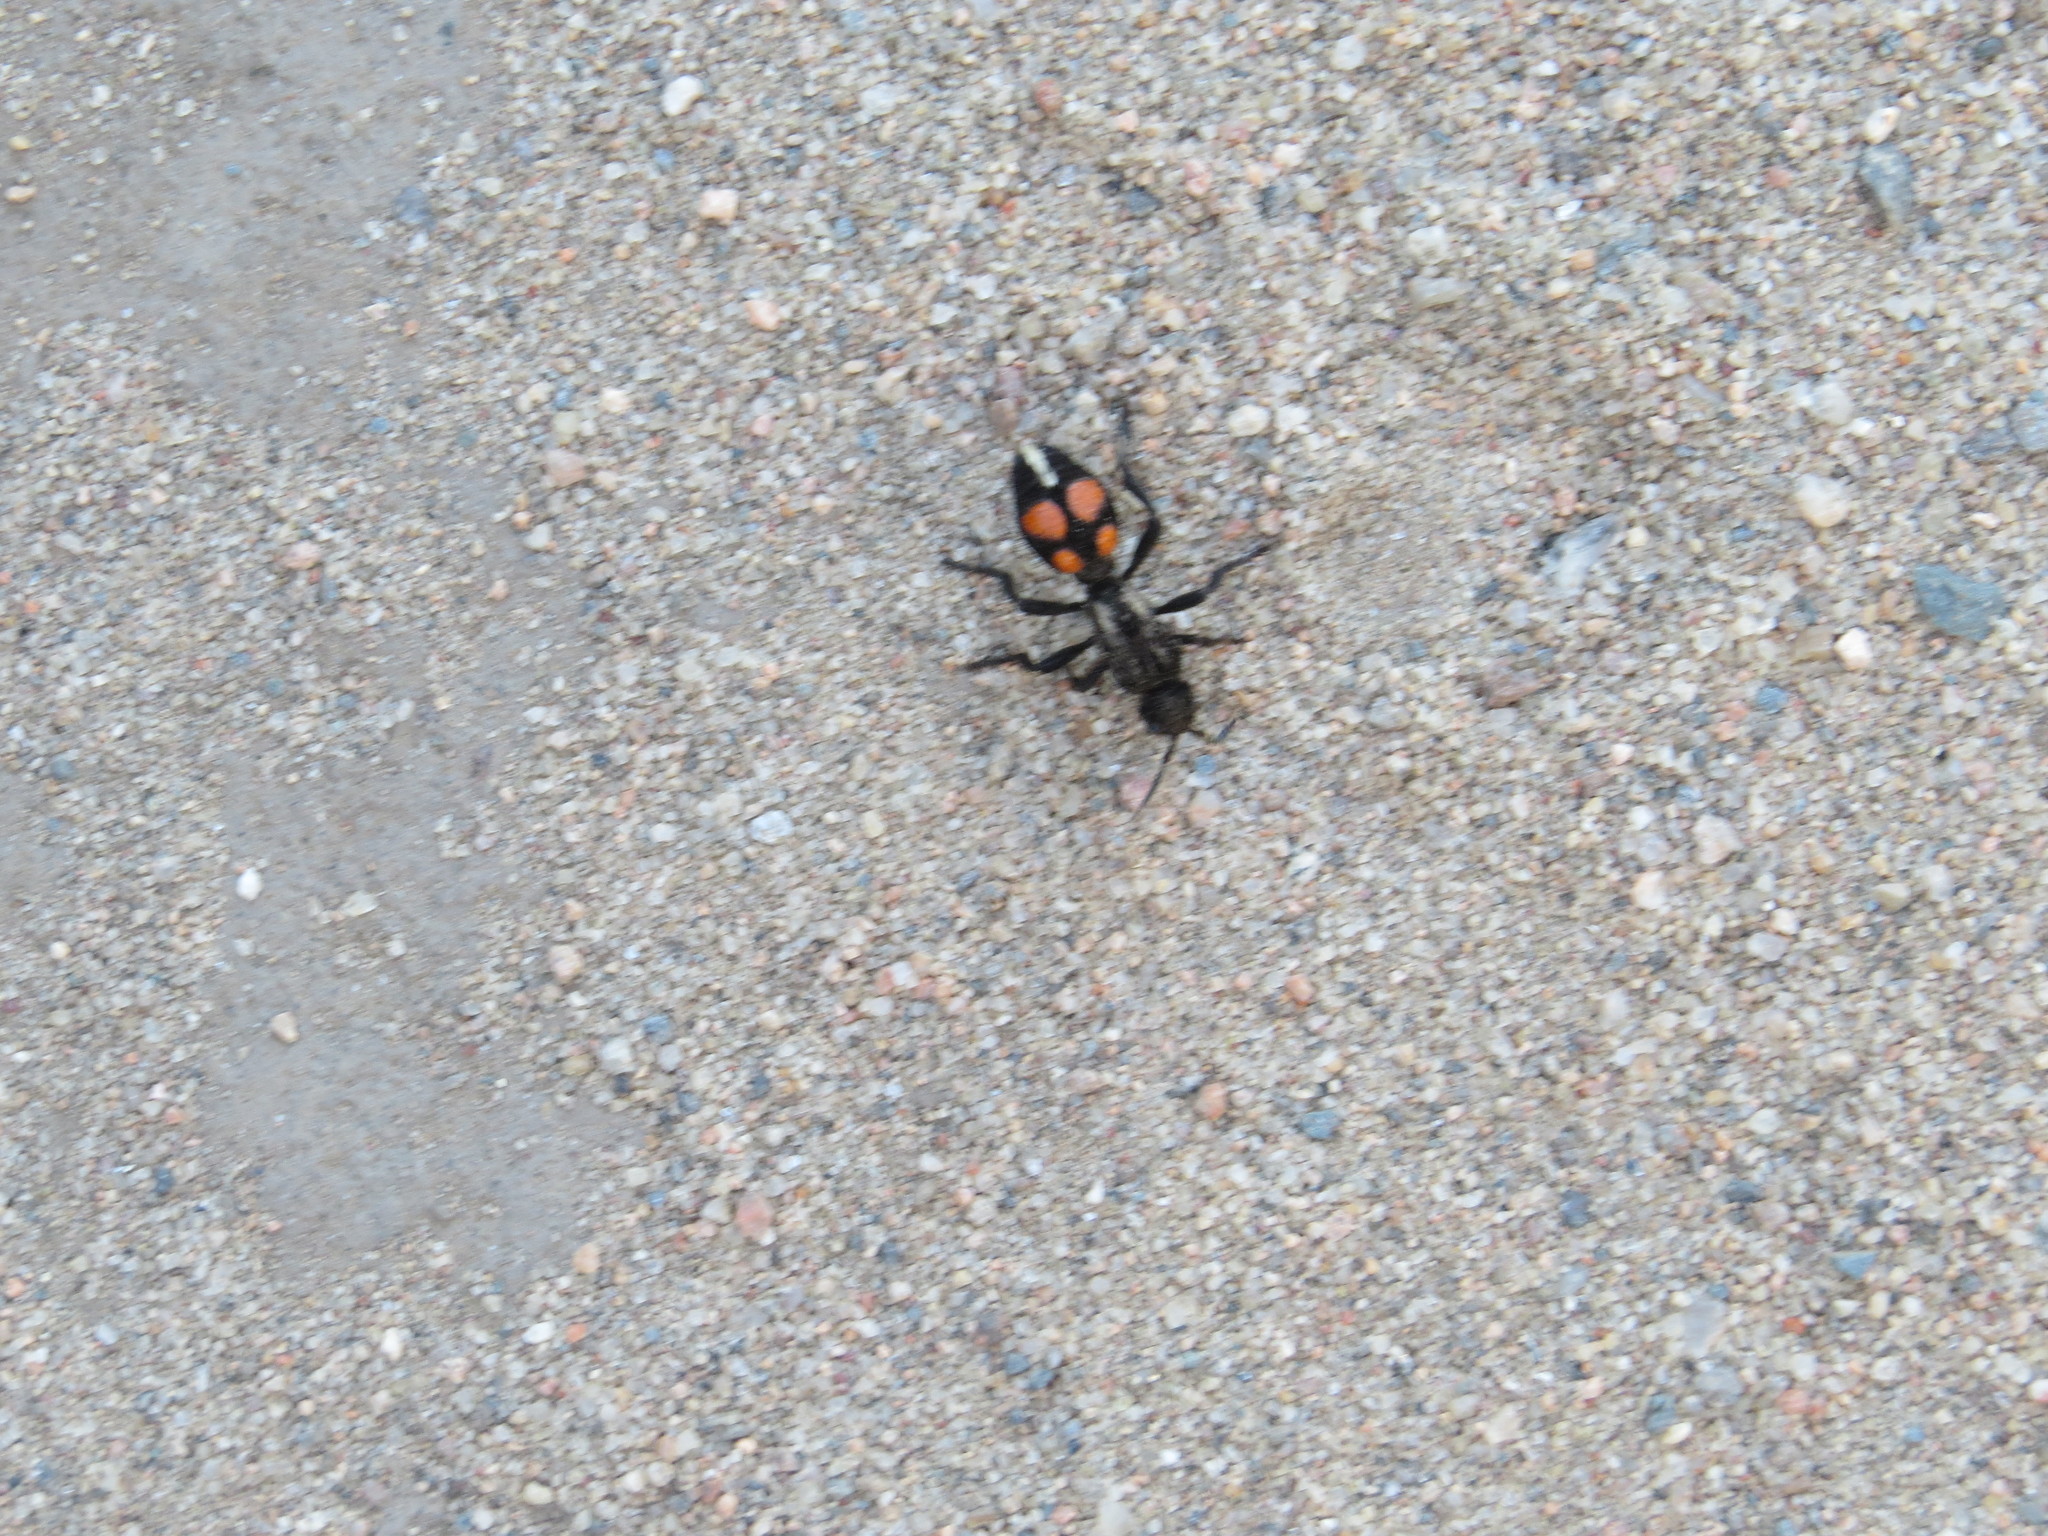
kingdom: Animalia
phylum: Arthropoda
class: Insecta
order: Hymenoptera
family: Mutillidae
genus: Traumatomutilla
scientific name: Traumatomutilla
